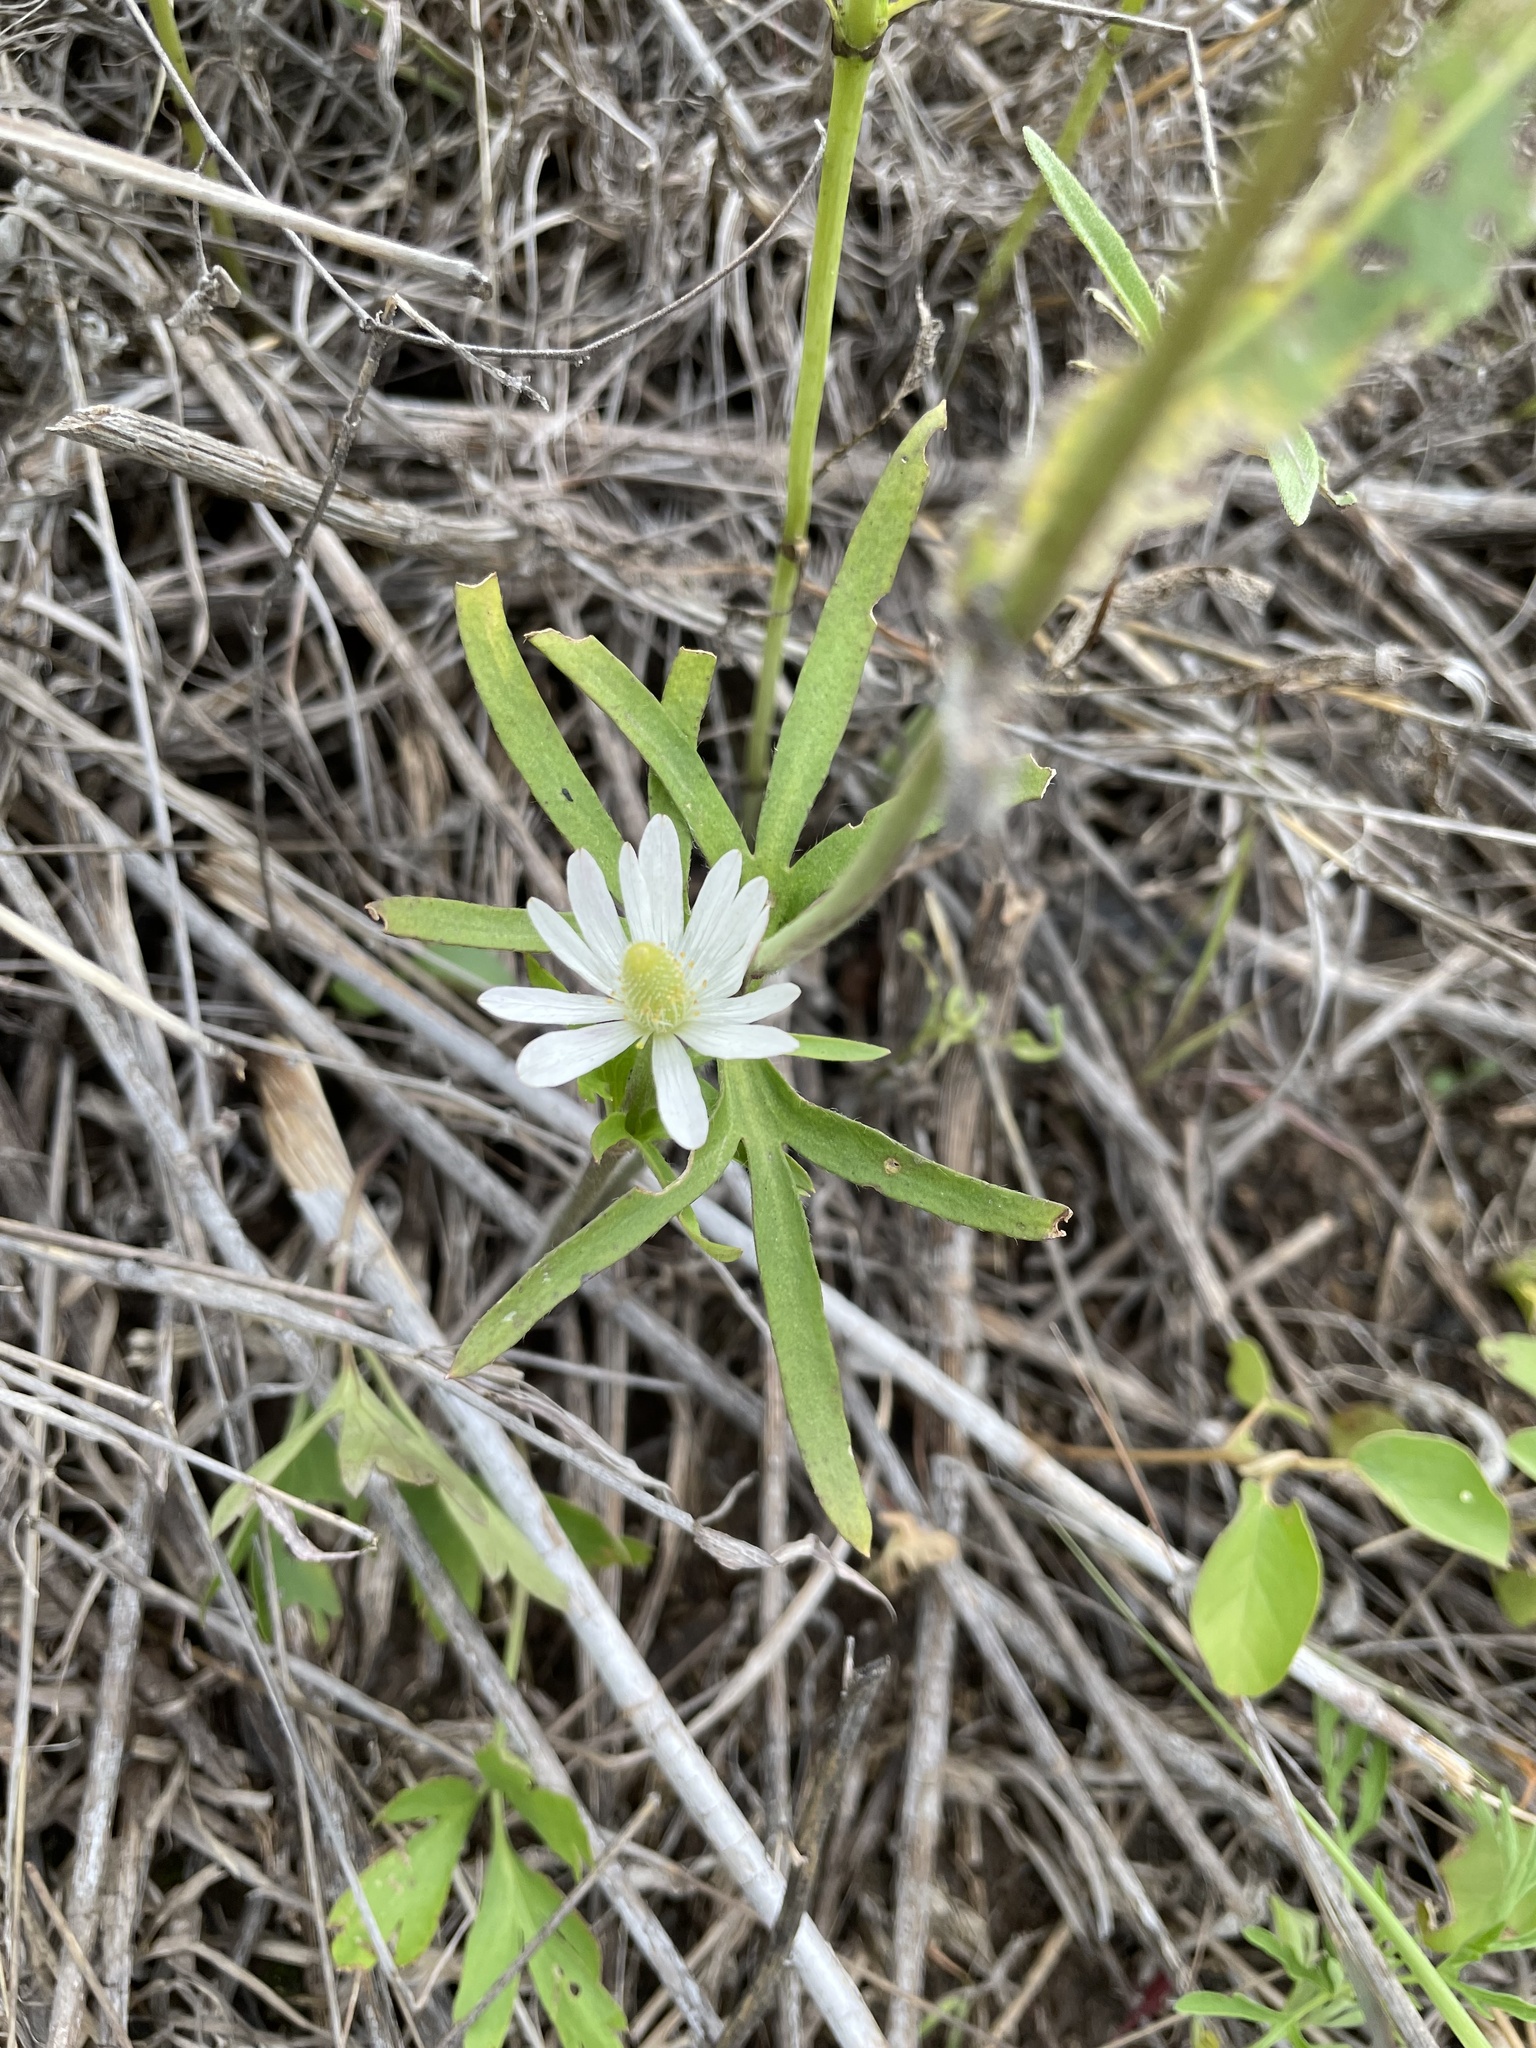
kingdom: Plantae
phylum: Tracheophyta
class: Magnoliopsida
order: Ranunculales
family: Ranunculaceae
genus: Anemone
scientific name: Anemone berlandieri
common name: Ten-petal anemone
